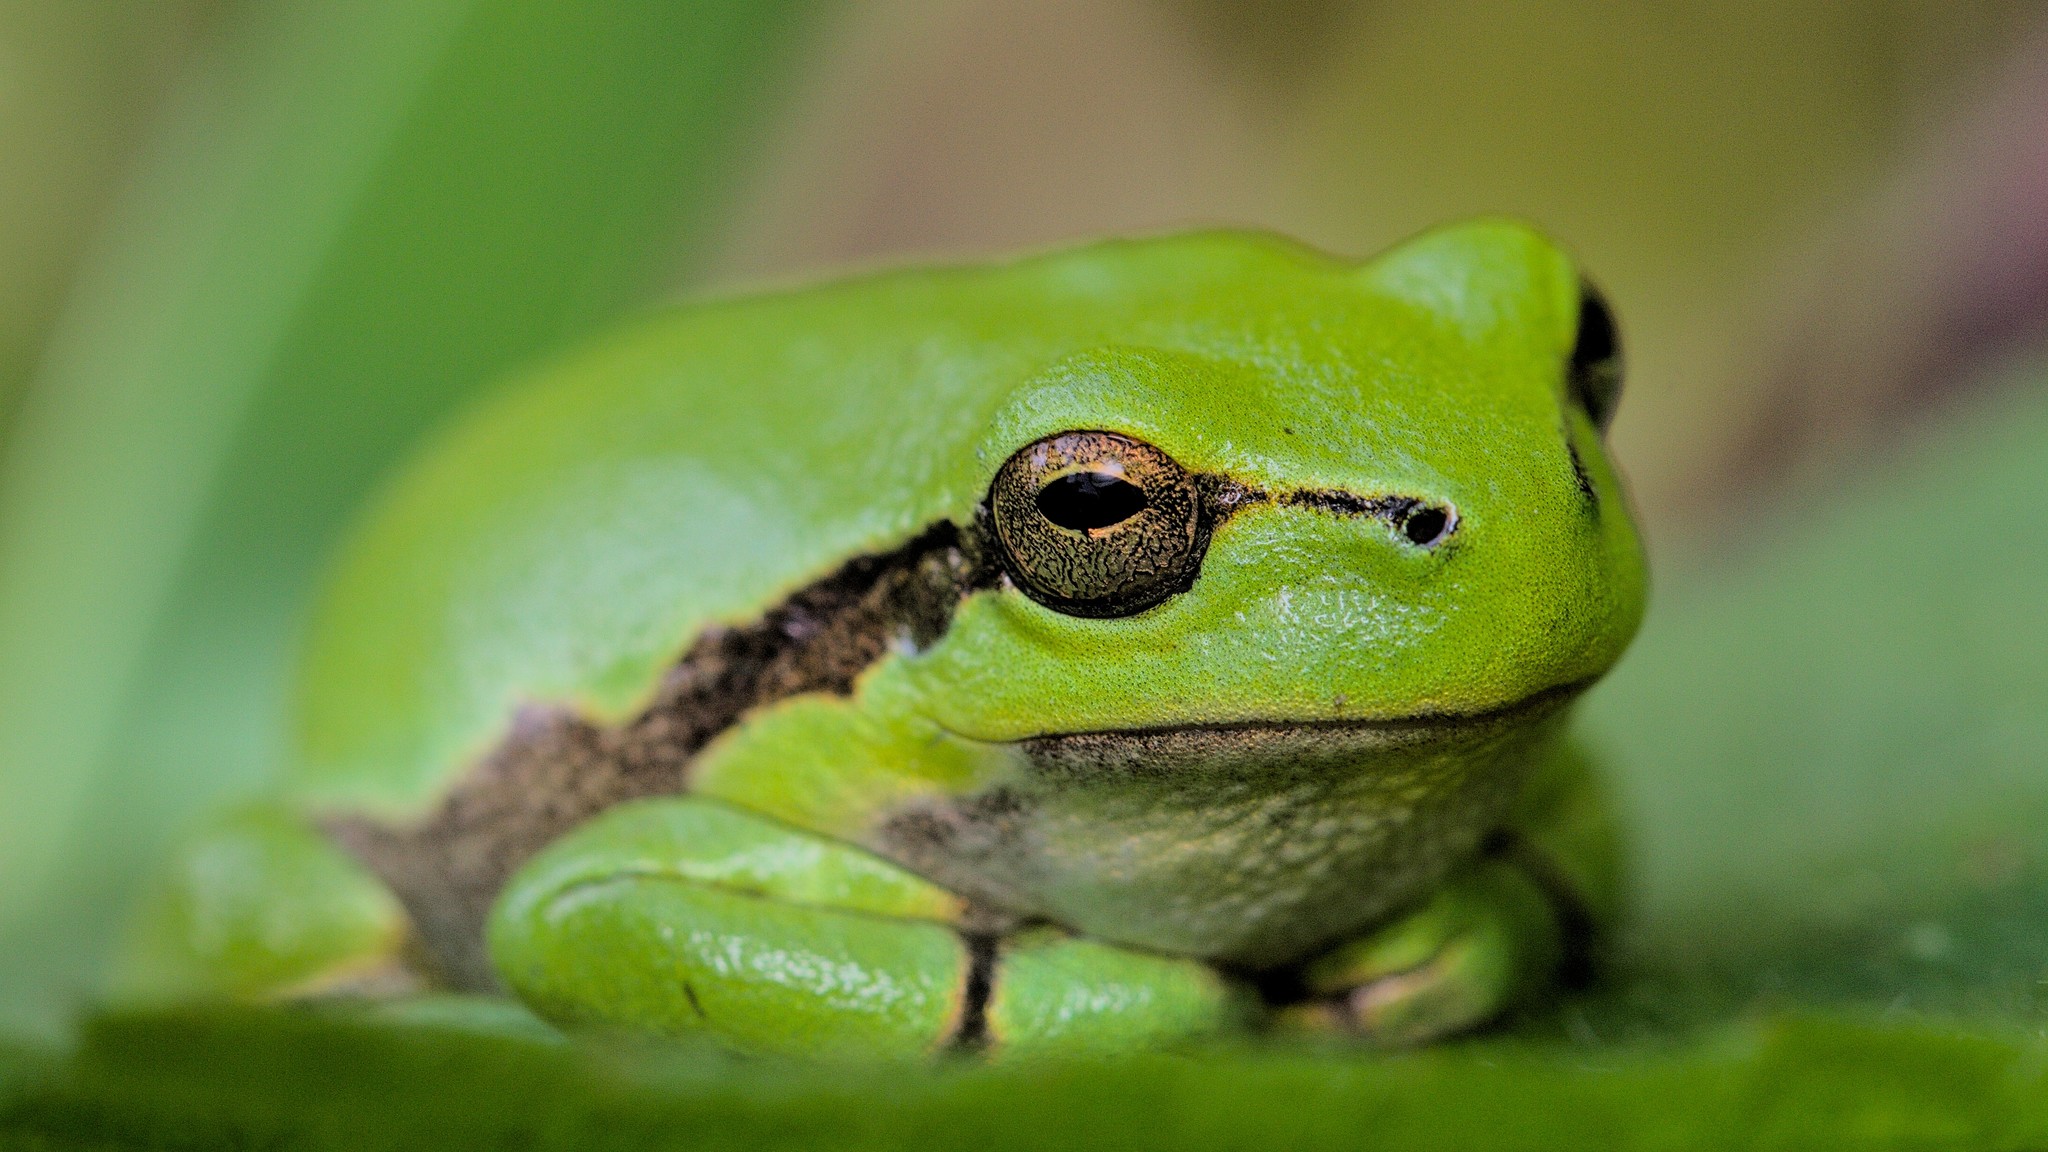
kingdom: Animalia
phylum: Chordata
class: Amphibia
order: Anura
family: Hylidae
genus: Hyla
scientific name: Hyla arborea
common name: Common tree frog
